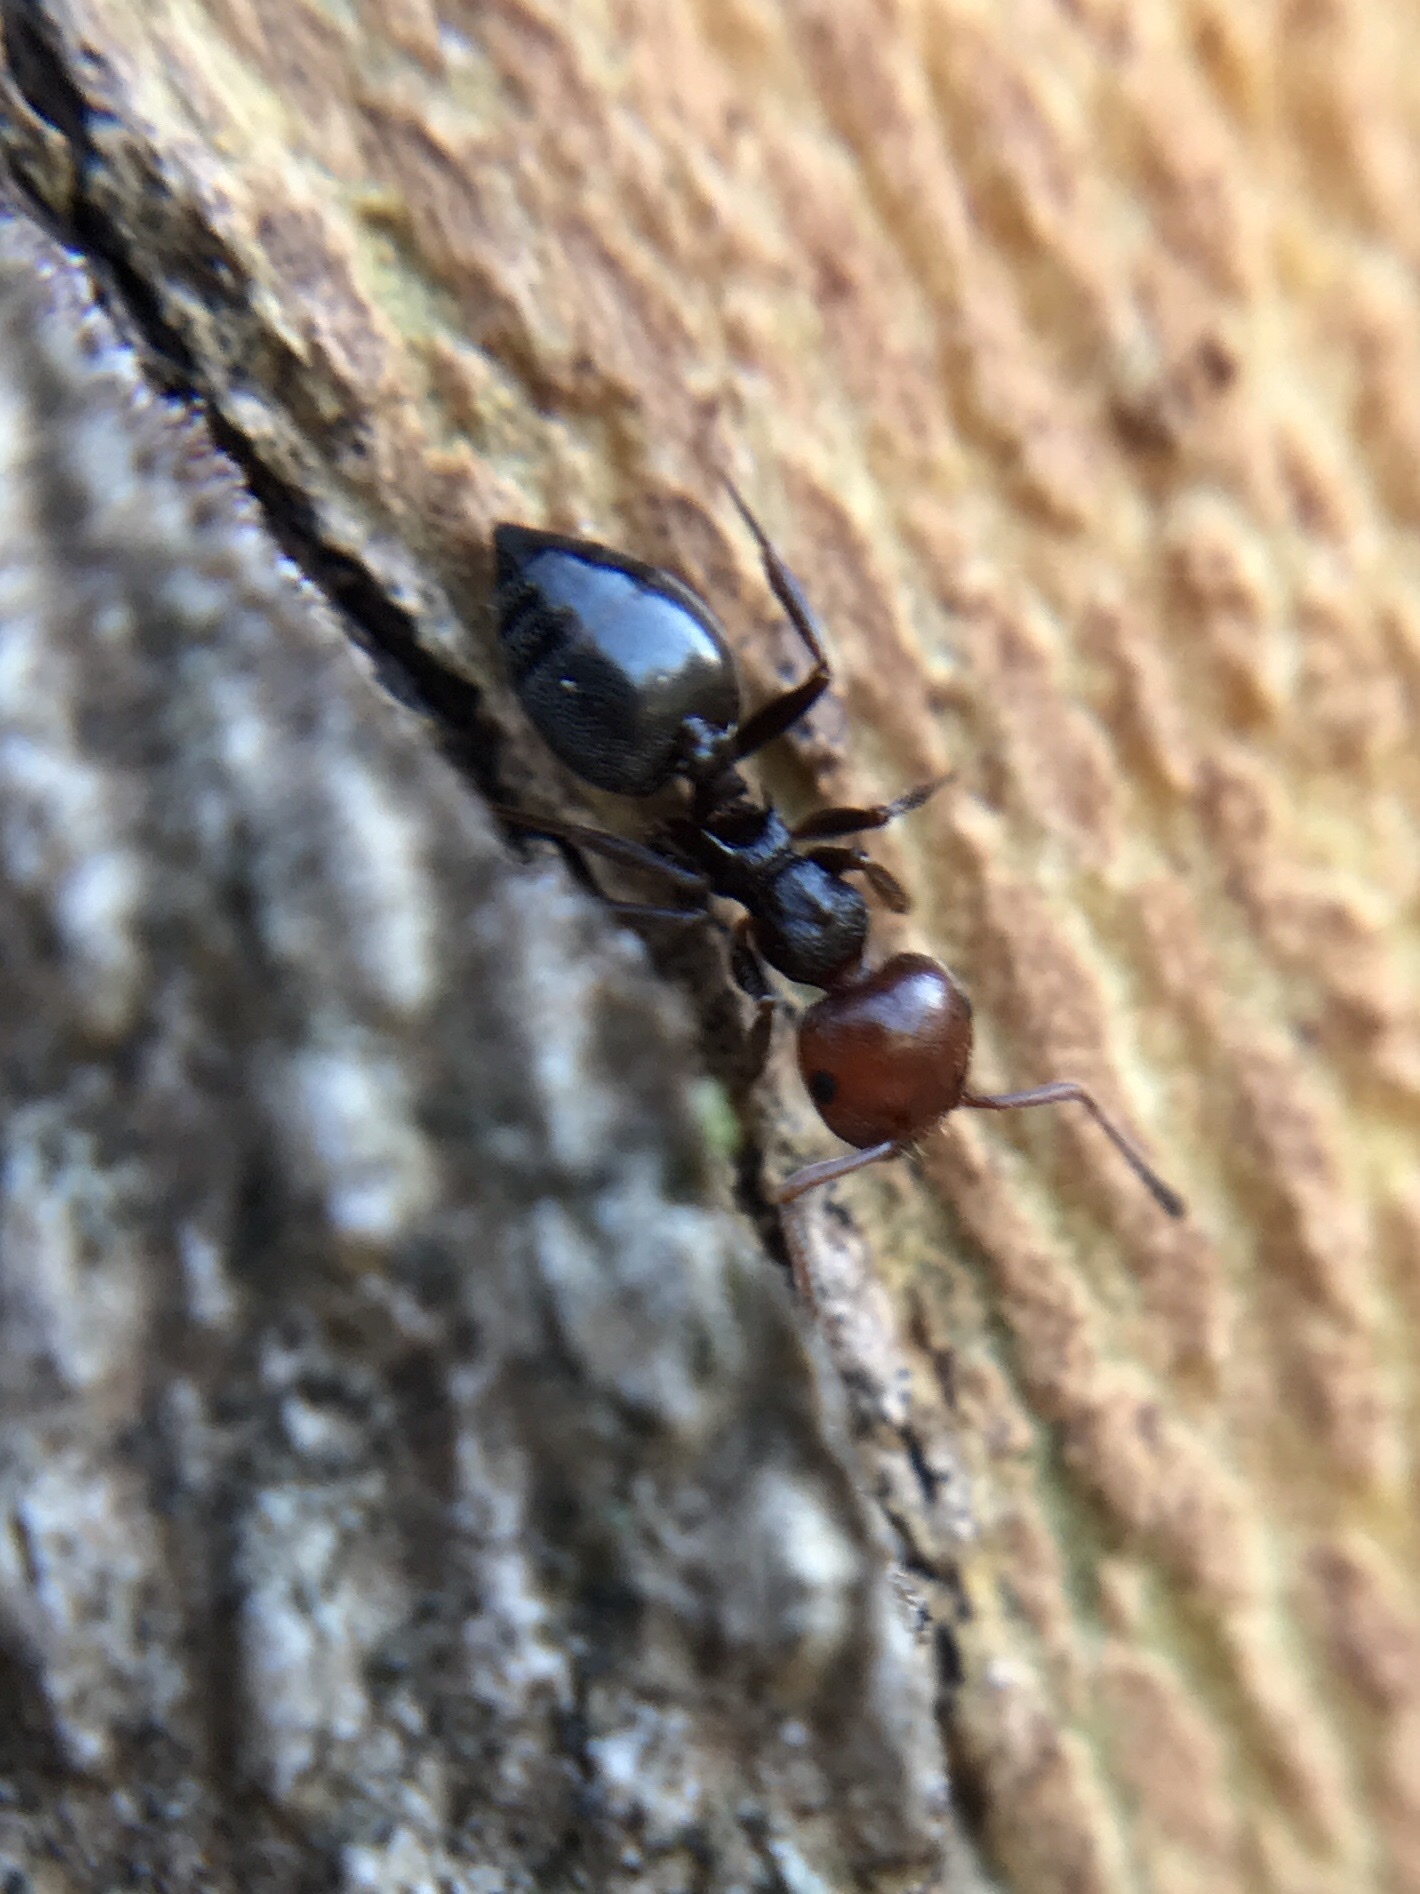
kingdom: Animalia
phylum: Arthropoda
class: Insecta
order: Hymenoptera
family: Formicidae
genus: Crematogaster
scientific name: Crematogaster scutellaris
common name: Fourmi du liège
